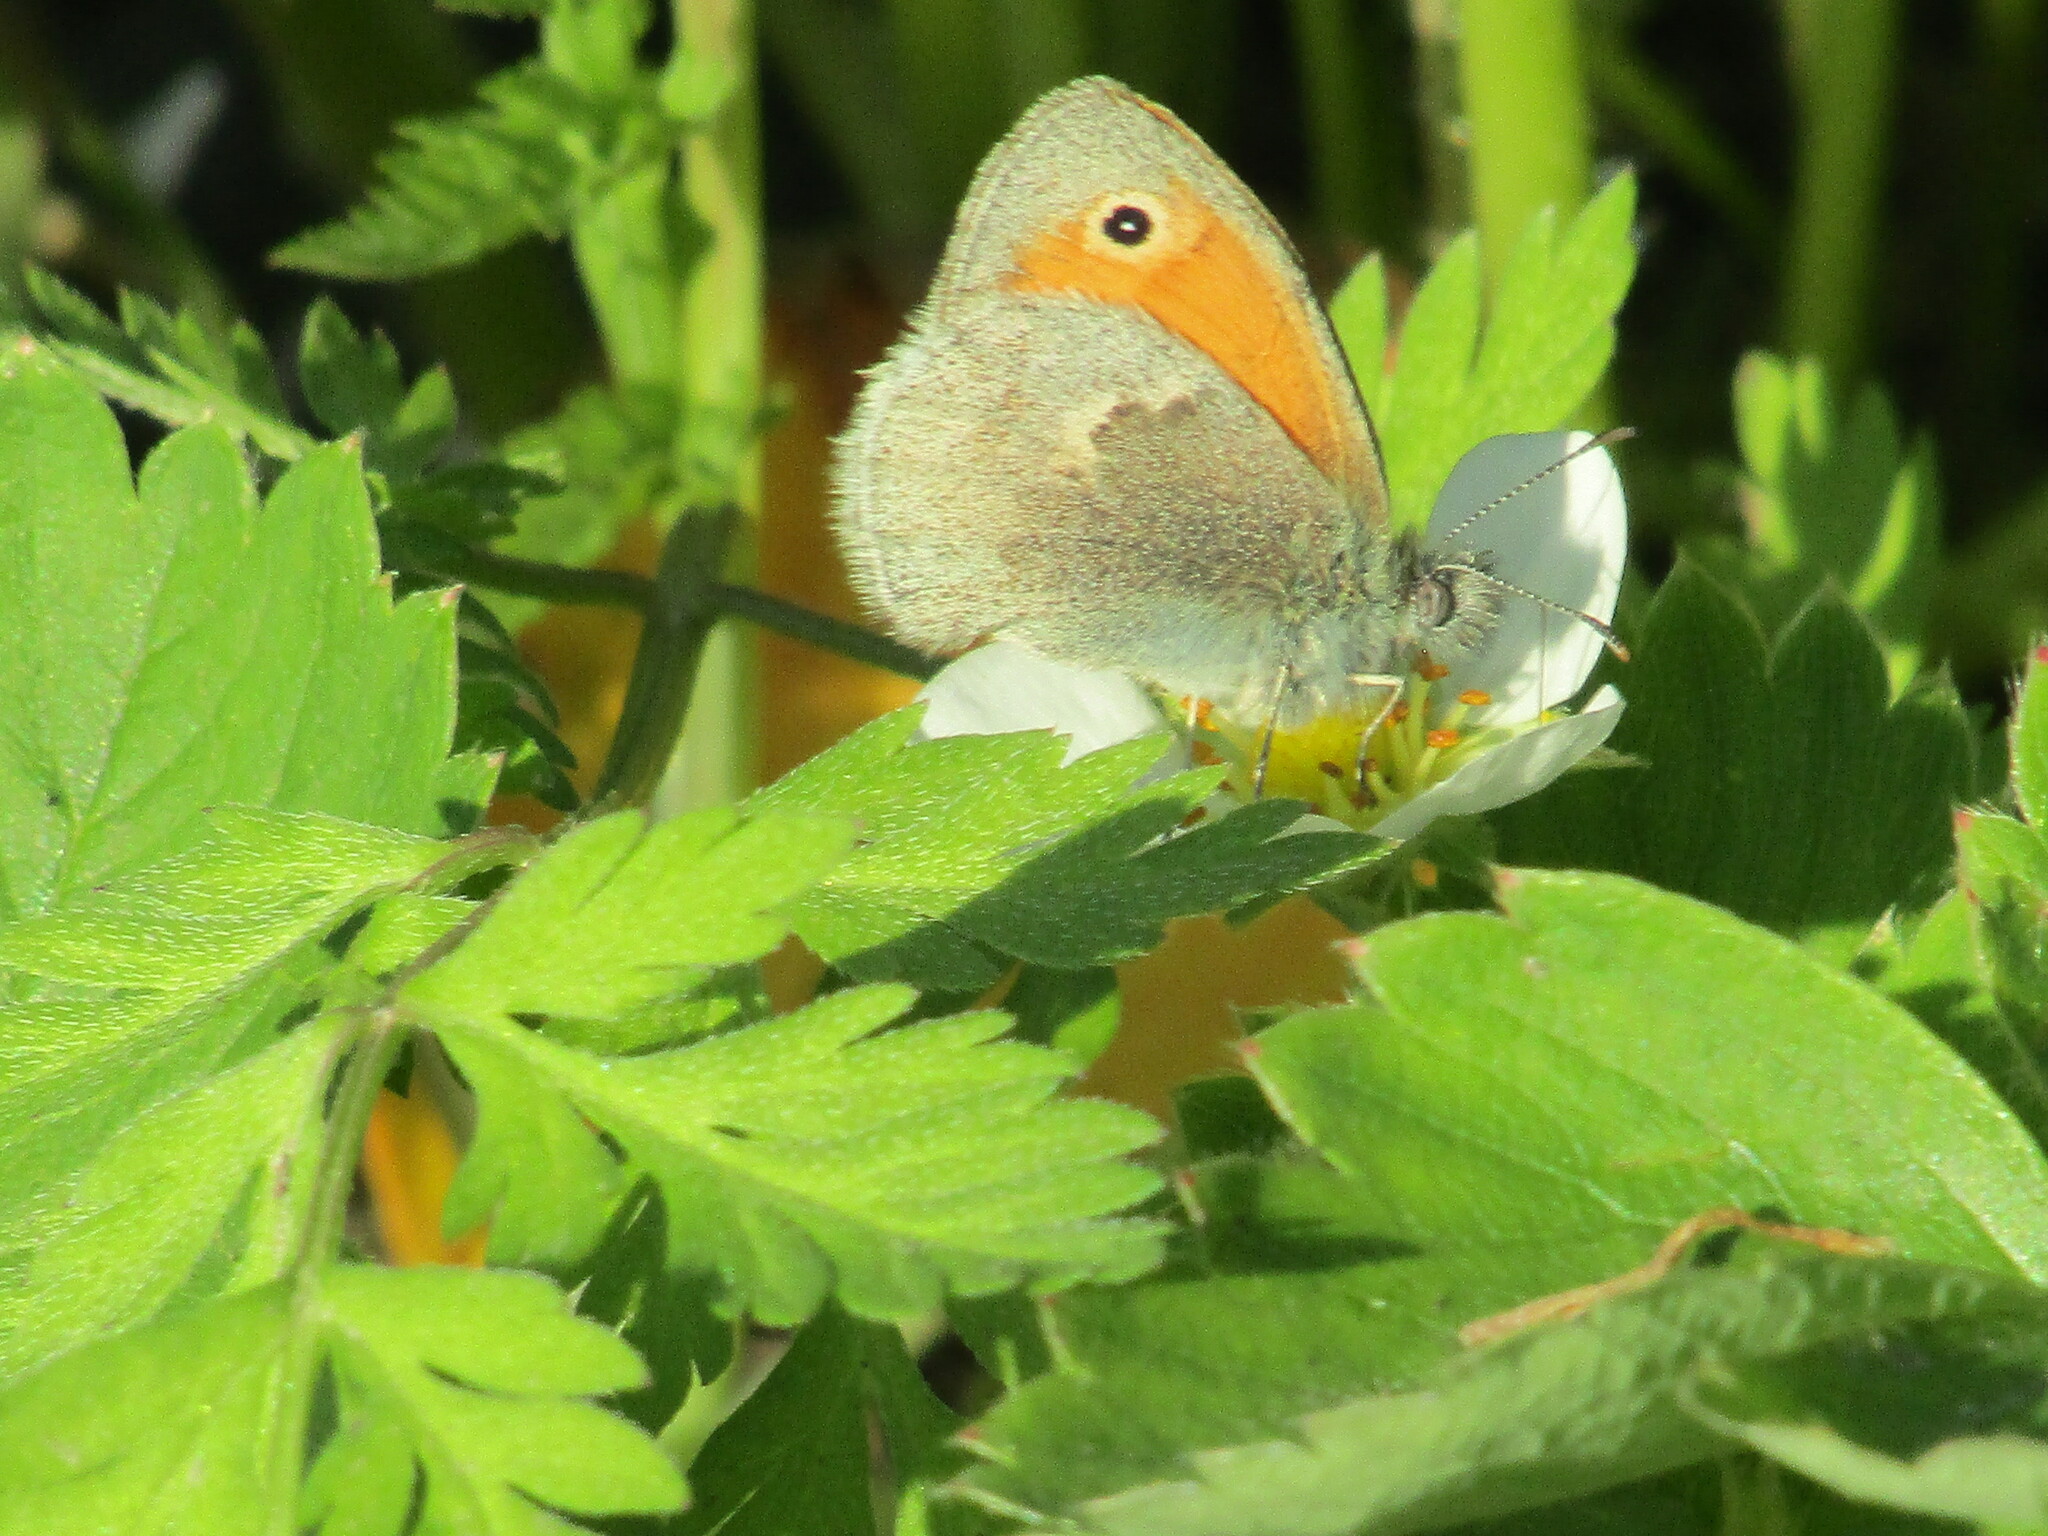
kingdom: Animalia
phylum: Arthropoda
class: Insecta
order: Lepidoptera
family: Nymphalidae
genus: Coenonympha
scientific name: Coenonympha pamphilus
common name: Small heath
